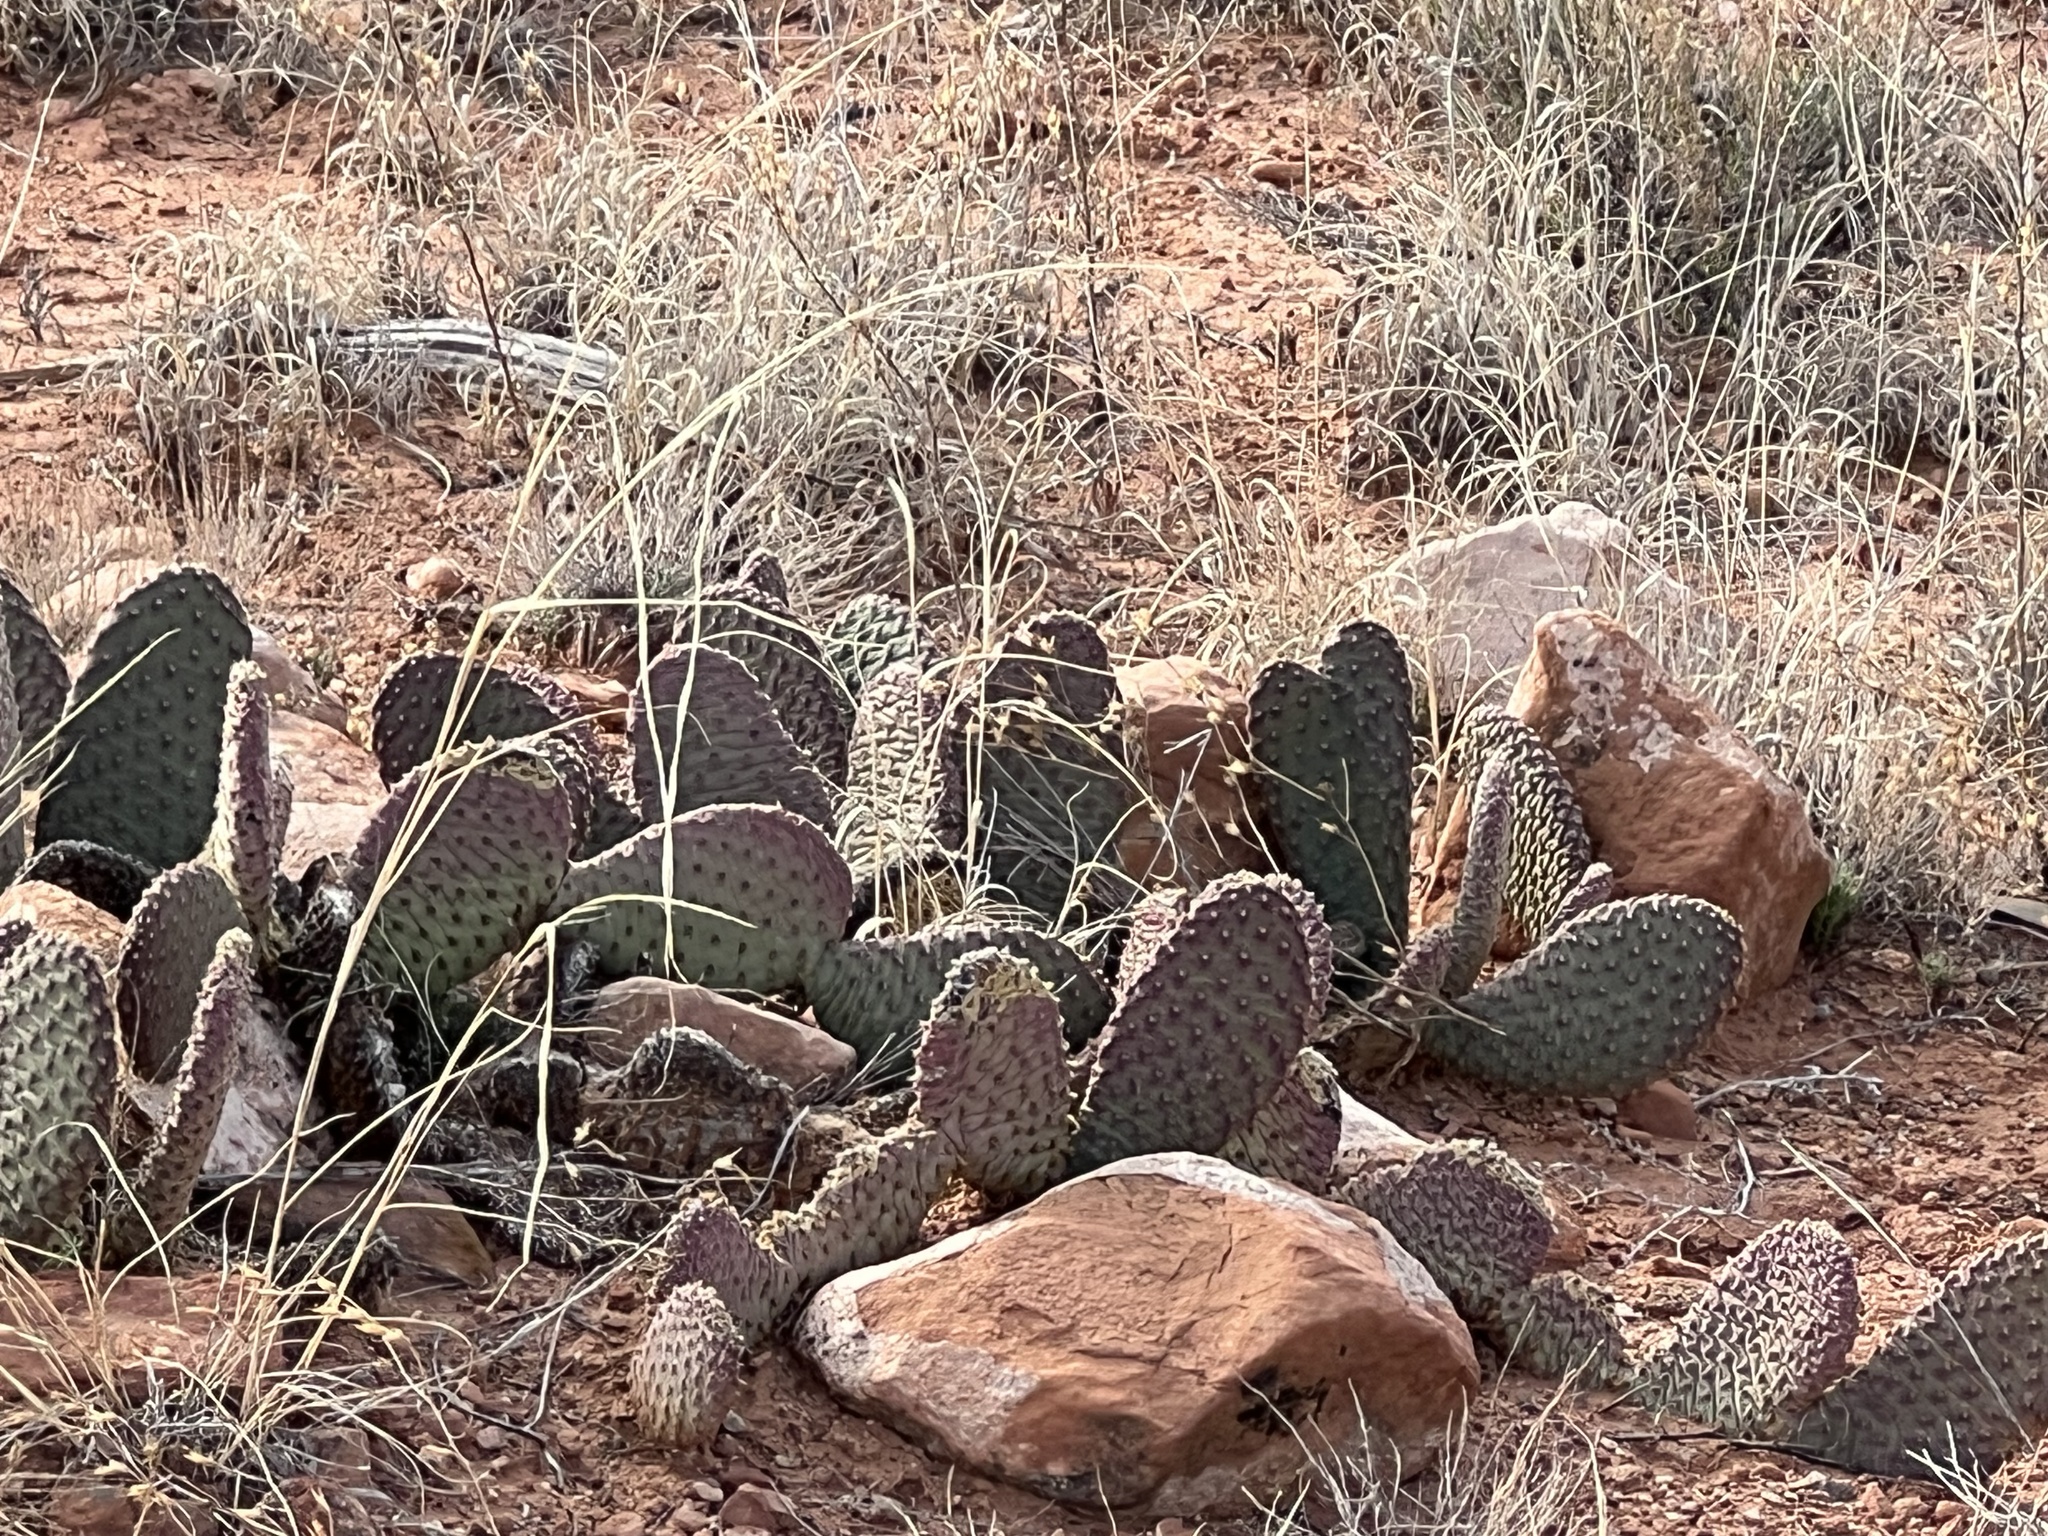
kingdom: Plantae
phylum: Tracheophyta
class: Magnoliopsida
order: Caryophyllales
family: Cactaceae
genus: Opuntia
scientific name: Opuntia aurea
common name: Golden prickly-pear
